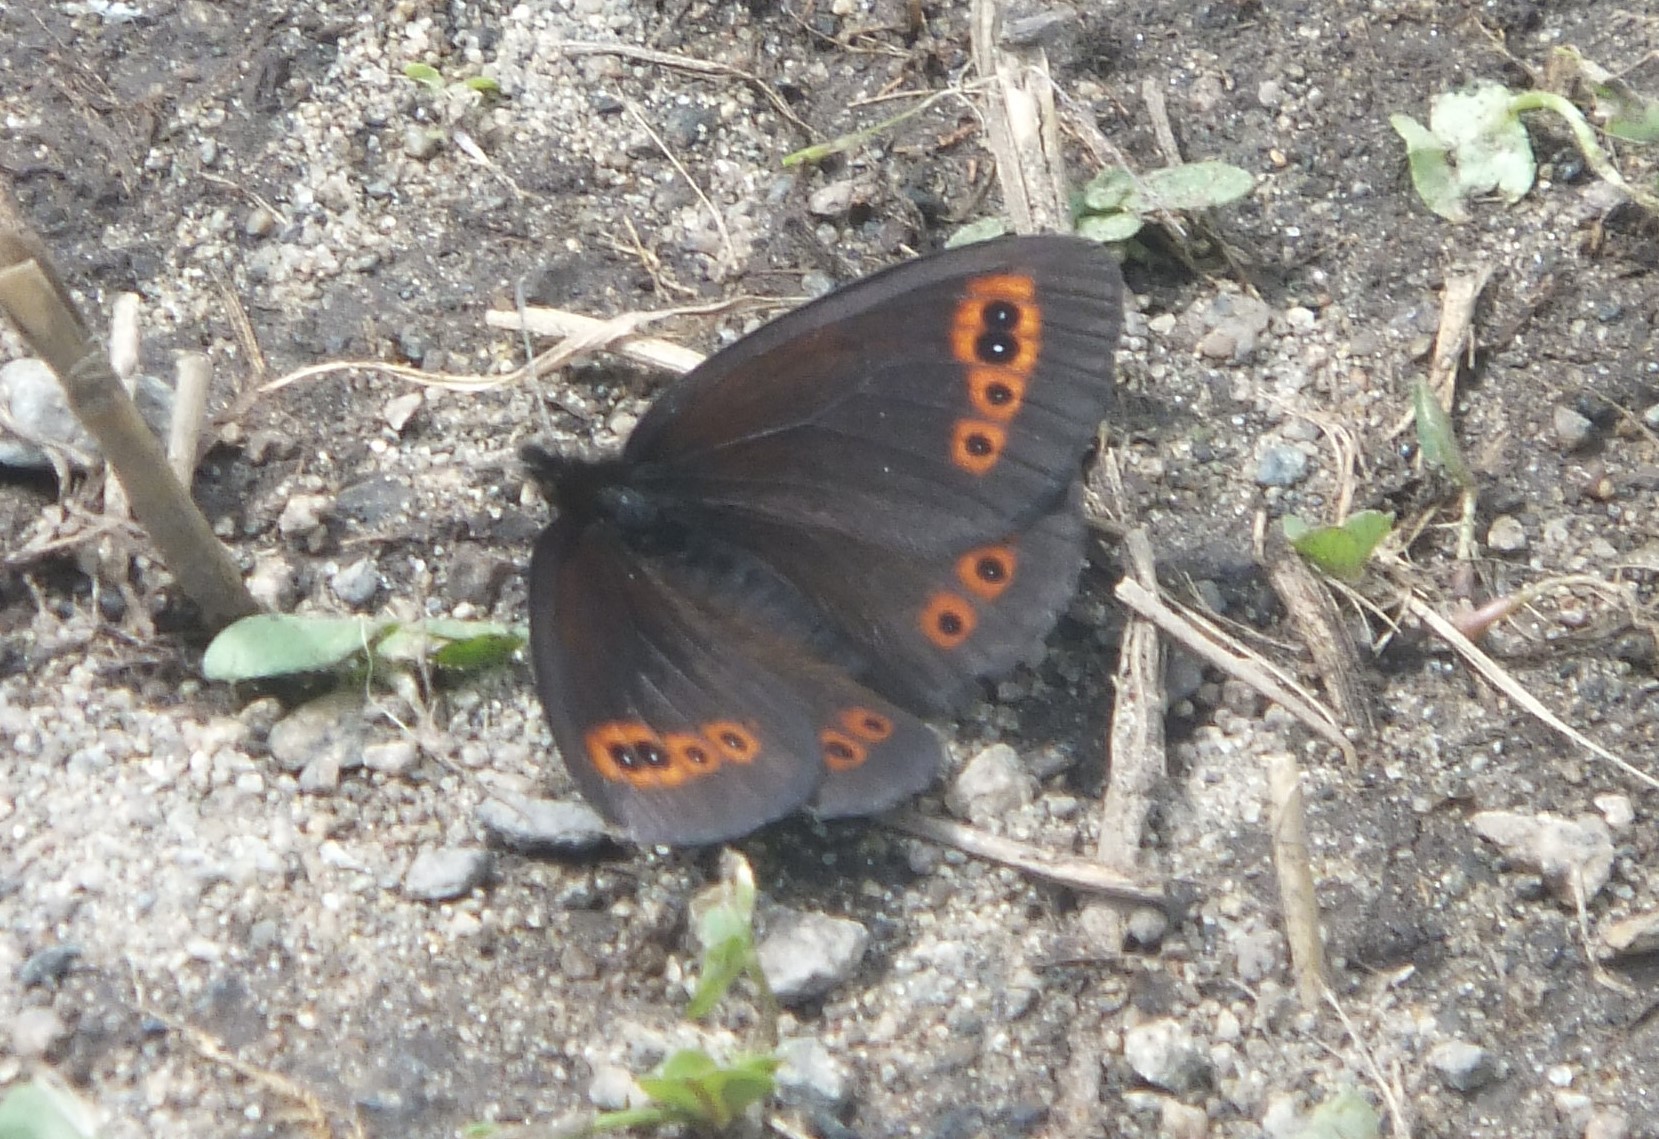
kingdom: Animalia
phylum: Arthropoda
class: Insecta
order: Lepidoptera
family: Nymphalidae
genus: Erebia
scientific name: Erebia epipsodea
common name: Common alpine
